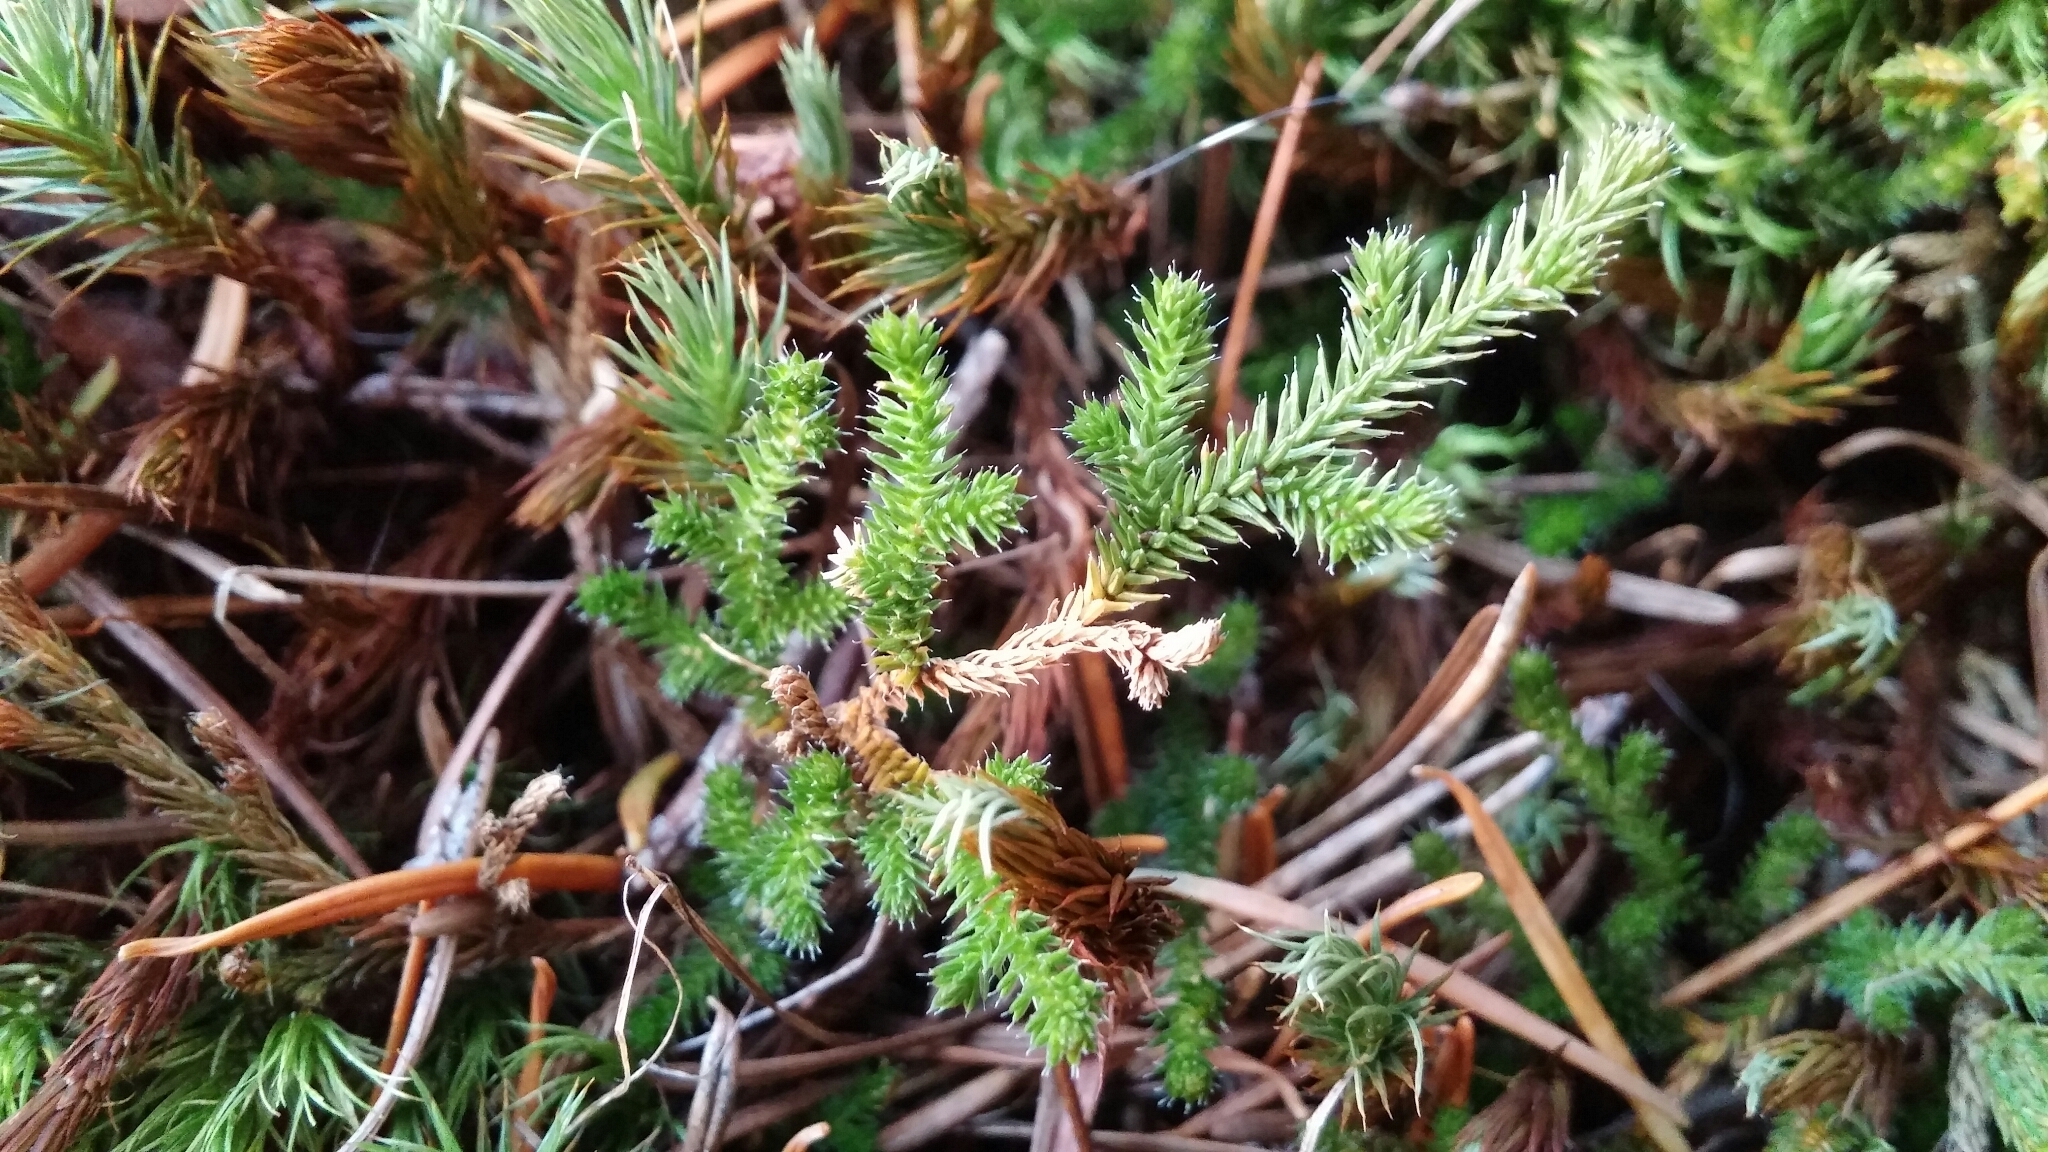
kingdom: Plantae
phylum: Tracheophyta
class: Lycopodiopsida
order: Selaginellales
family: Selaginellaceae
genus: Selaginella
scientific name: Selaginella wallacei
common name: Wallace's selaginella
